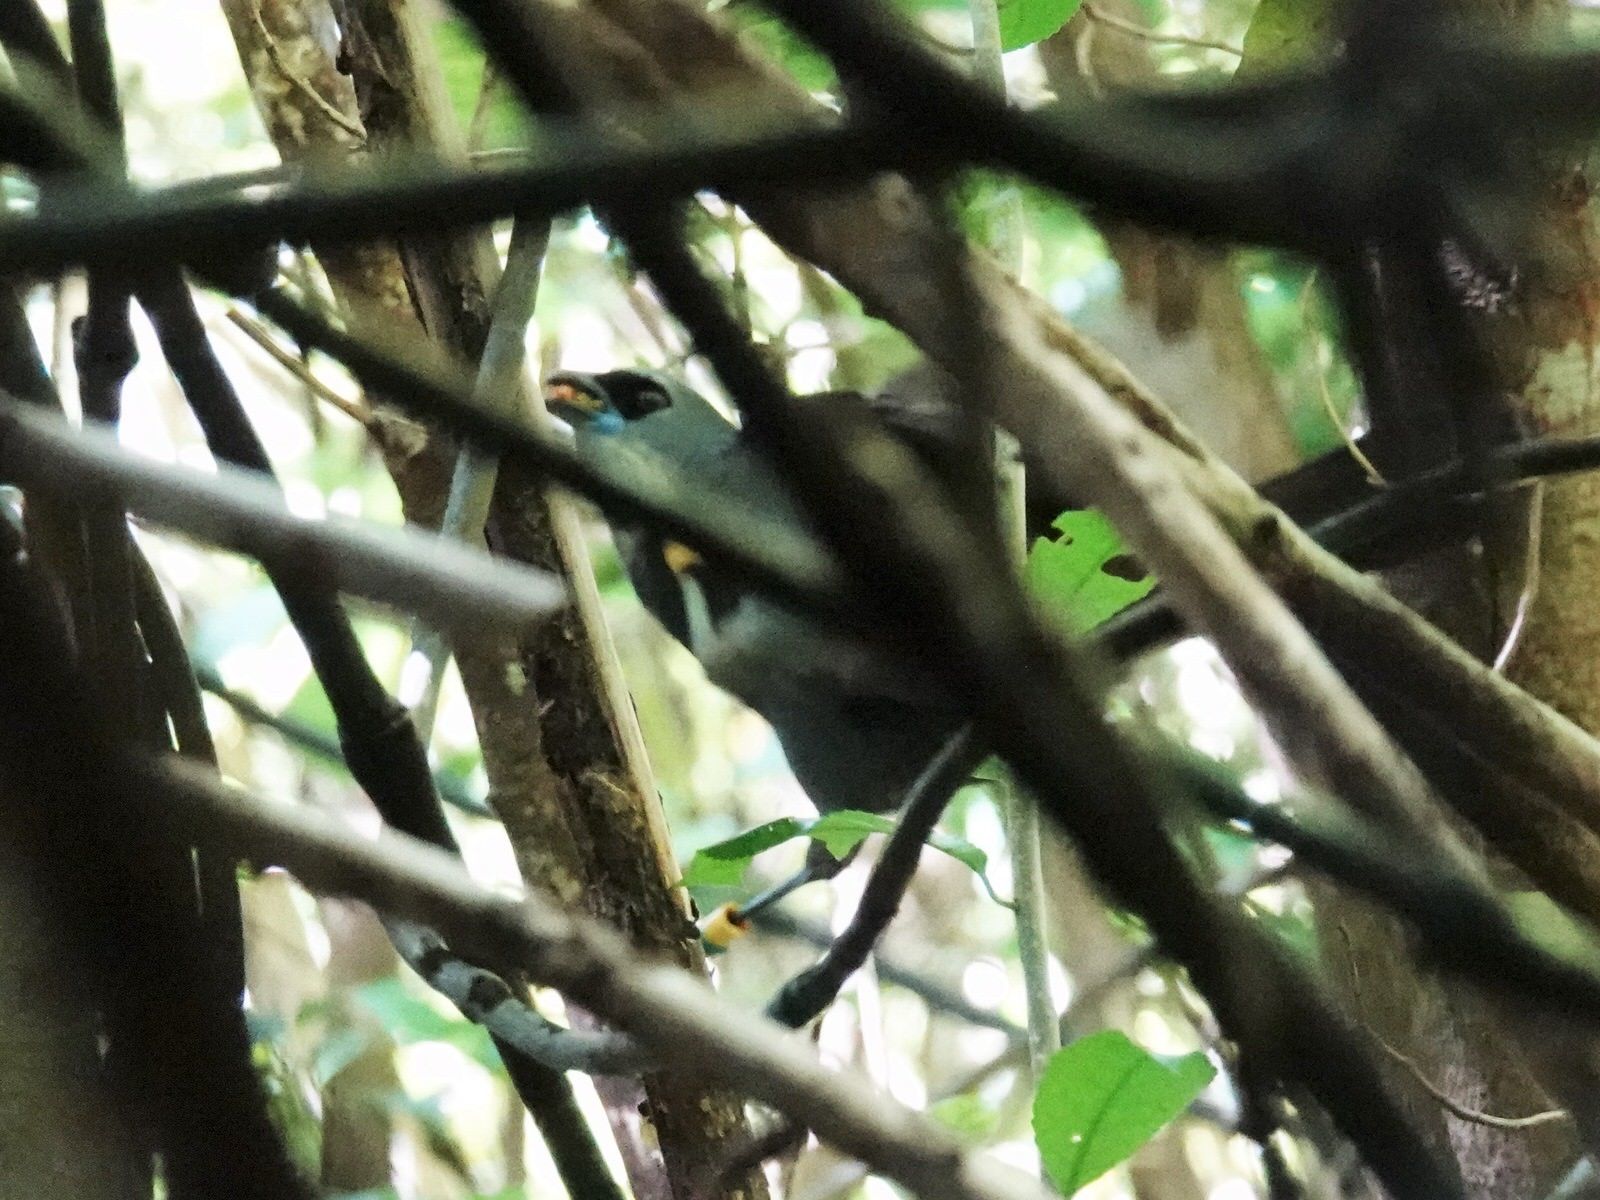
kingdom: Animalia
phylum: Chordata
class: Aves
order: Passeriformes
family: Callaeatidae
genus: Callaeas
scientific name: Callaeas cinereus
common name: South island kokako
